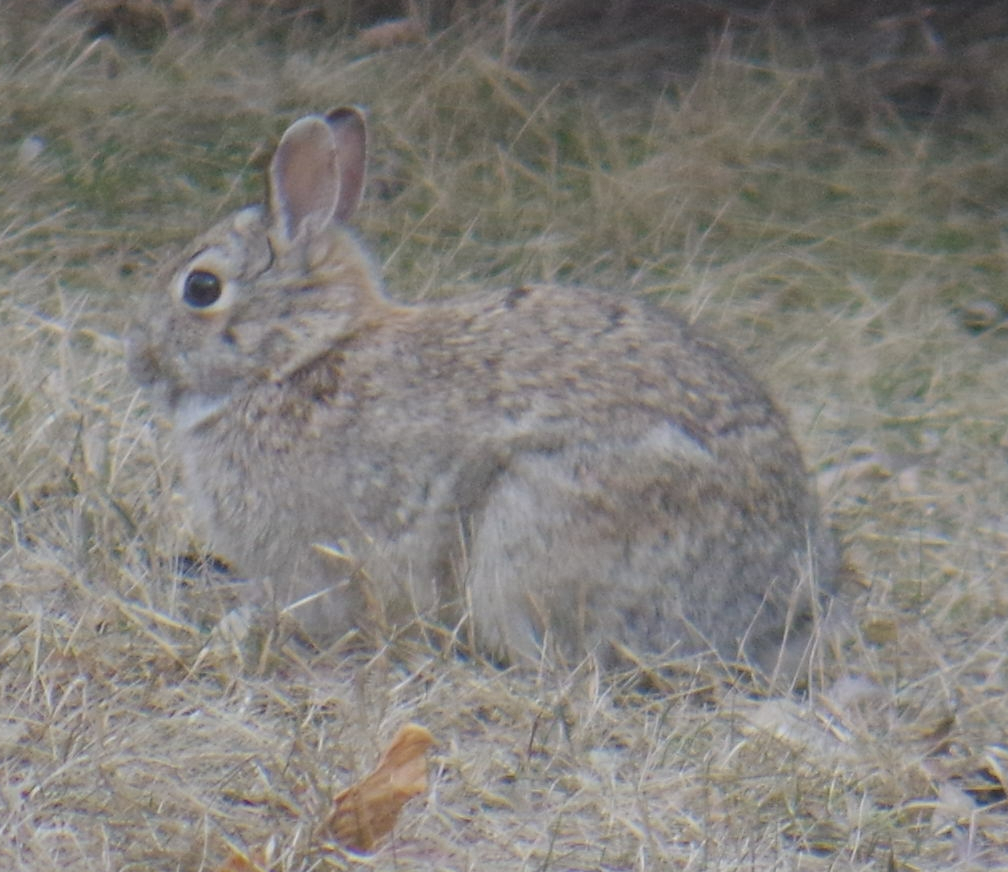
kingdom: Animalia
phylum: Chordata
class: Mammalia
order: Lagomorpha
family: Leporidae
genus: Sylvilagus
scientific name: Sylvilagus floridanus
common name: Eastern cottontail
